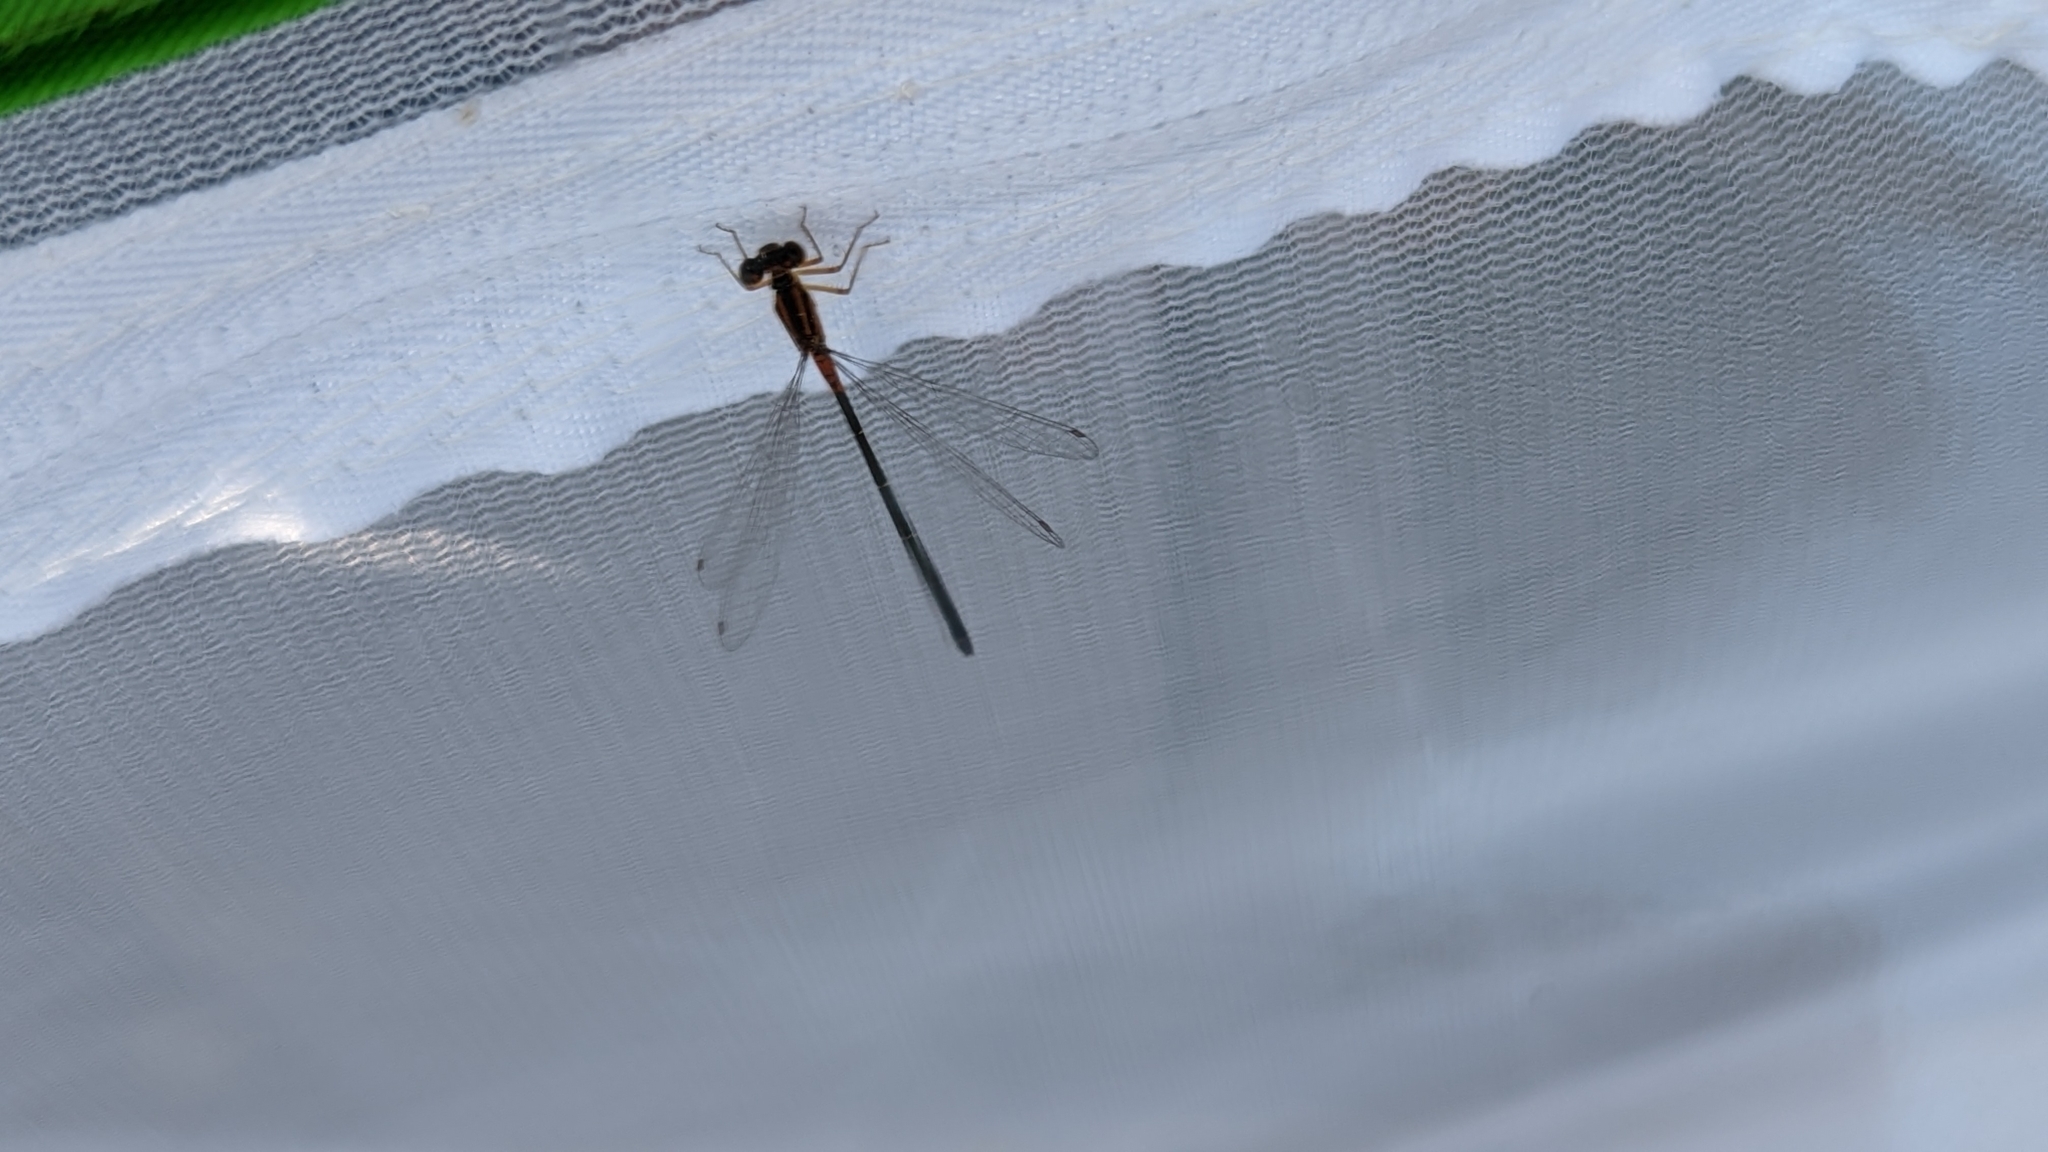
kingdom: Animalia
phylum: Arthropoda
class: Insecta
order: Odonata
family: Coenagrionidae
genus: Ischnura
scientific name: Ischnura verticalis
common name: Eastern forktail
